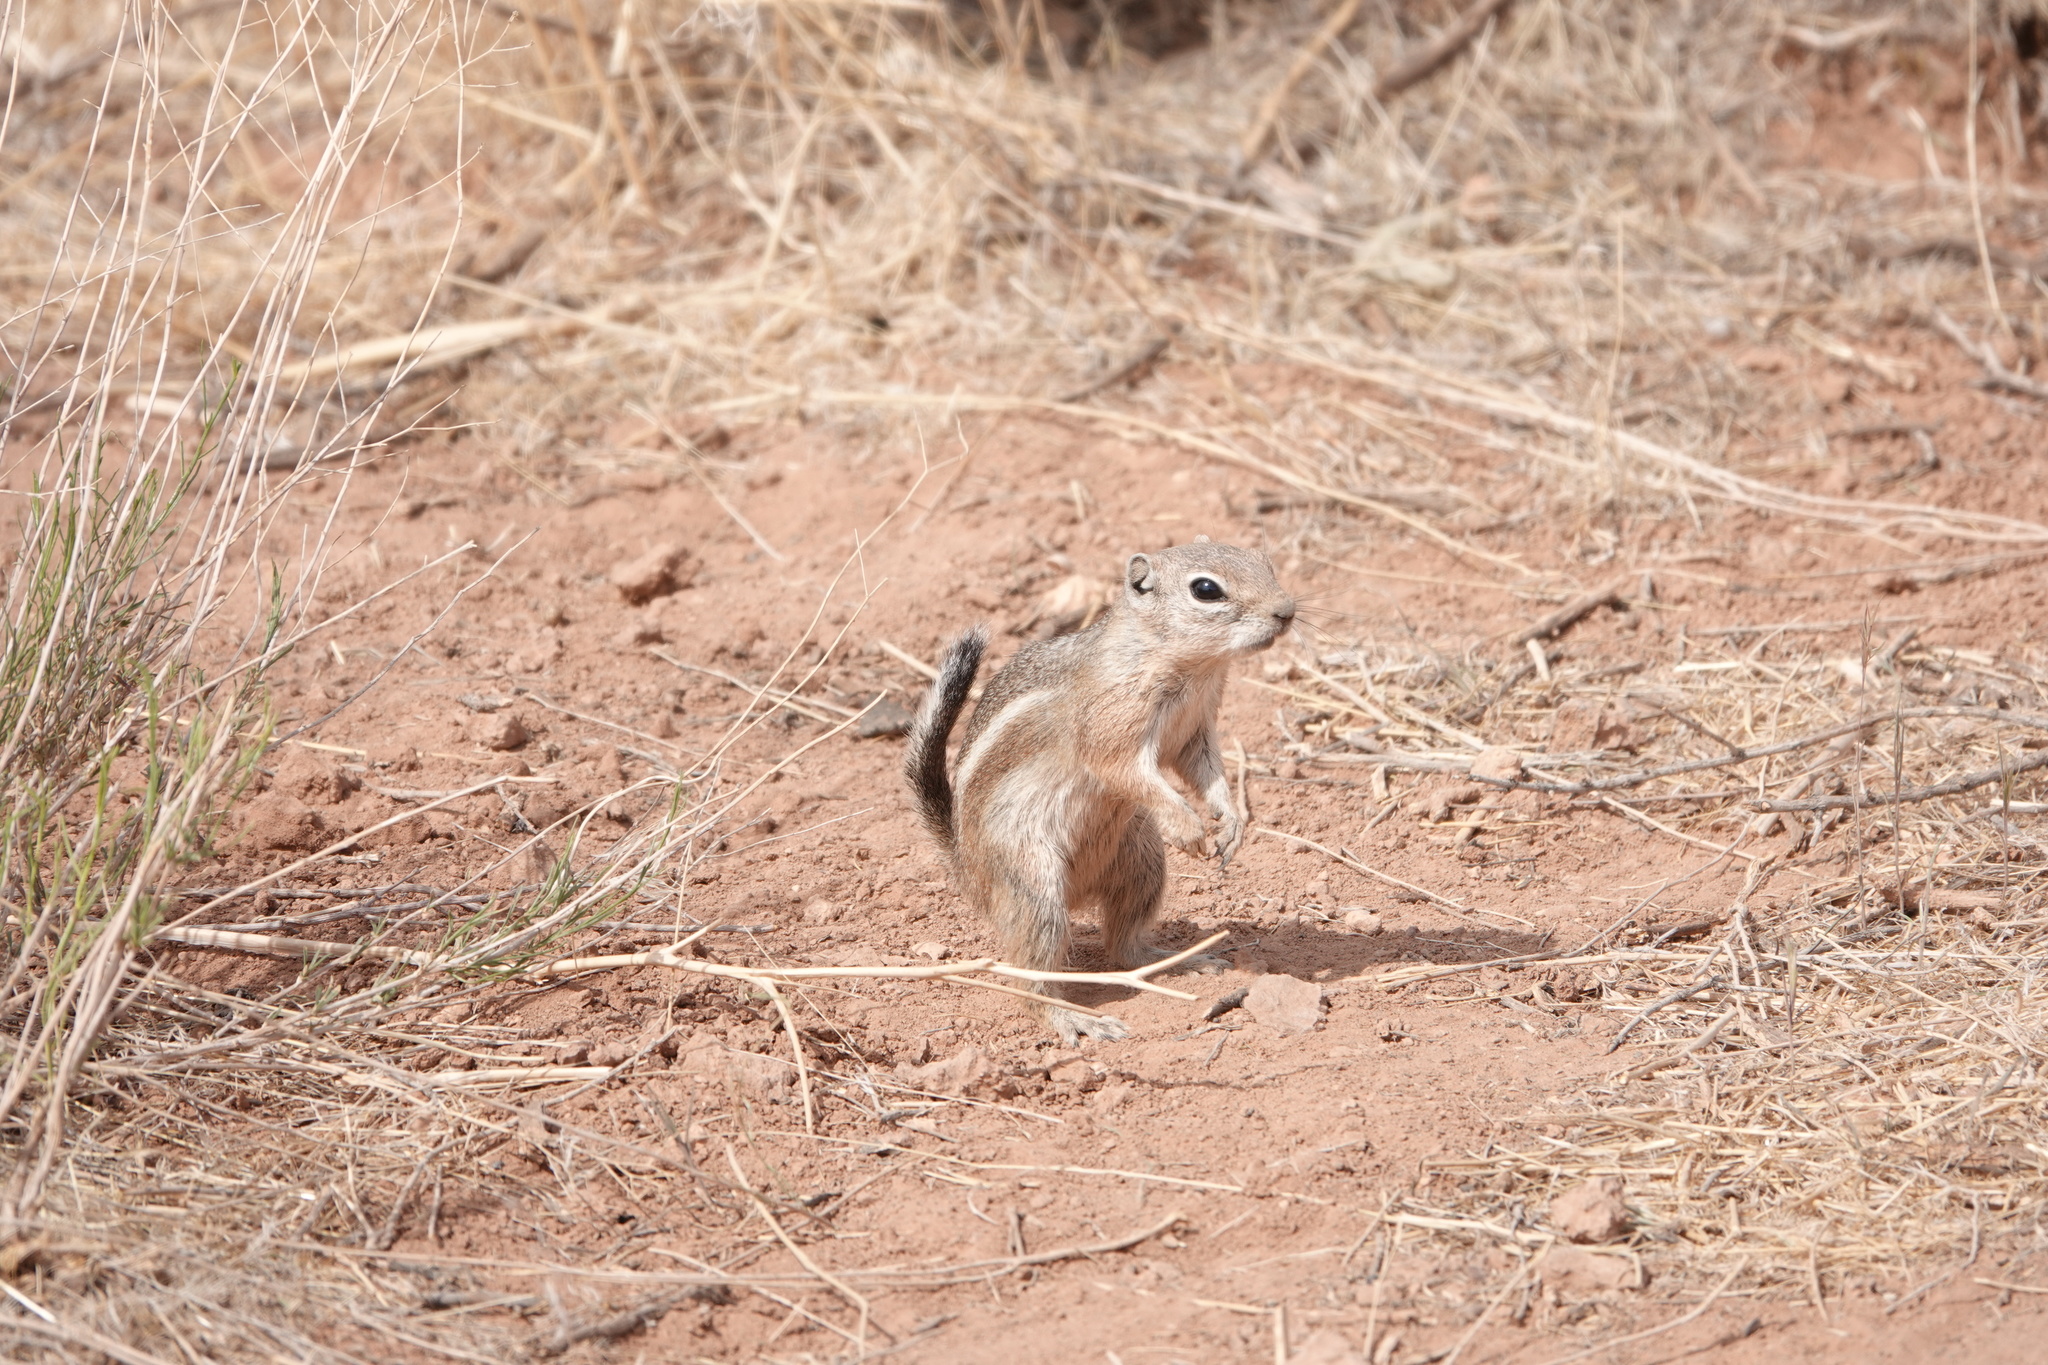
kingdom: Animalia
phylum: Chordata
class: Mammalia
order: Rodentia
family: Sciuridae
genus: Ammospermophilus
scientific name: Ammospermophilus leucurus
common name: White-tailed antelope squirrel
